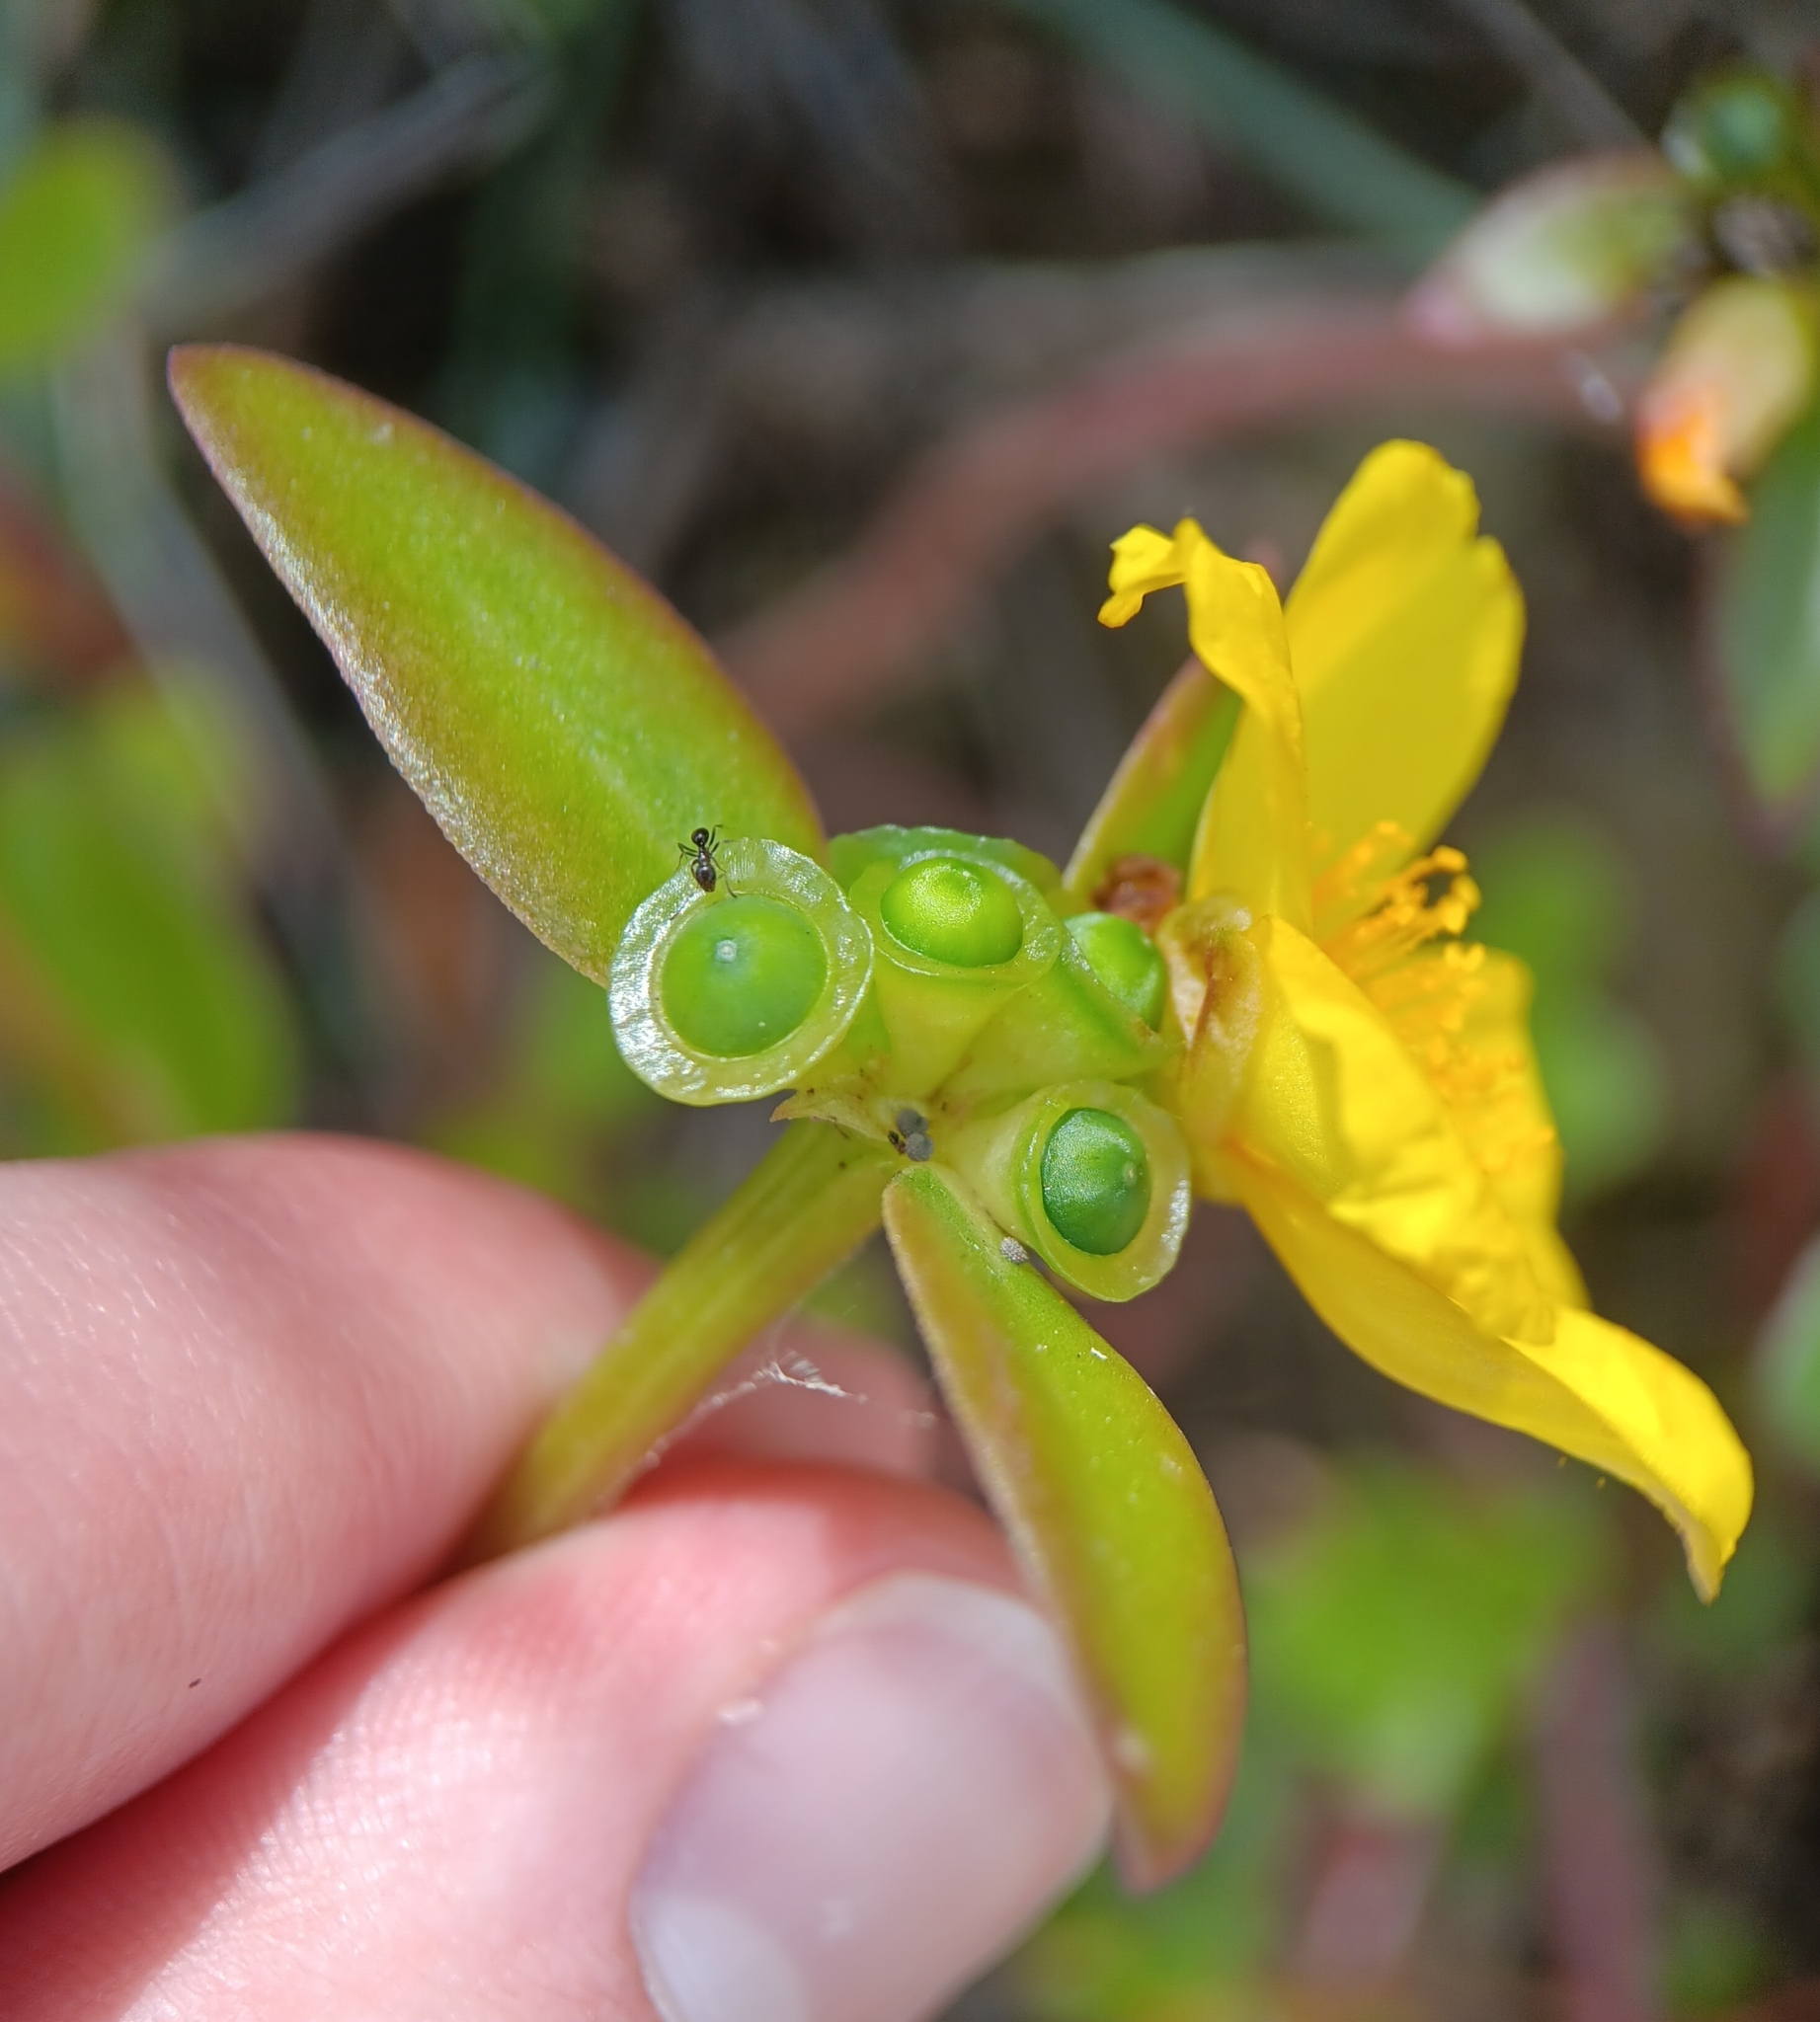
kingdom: Plantae
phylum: Tracheophyta
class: Magnoliopsida
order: Caryophyllales
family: Portulacaceae
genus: Portulaca
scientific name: Portulaca umbraticola
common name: Wingpod purslane
